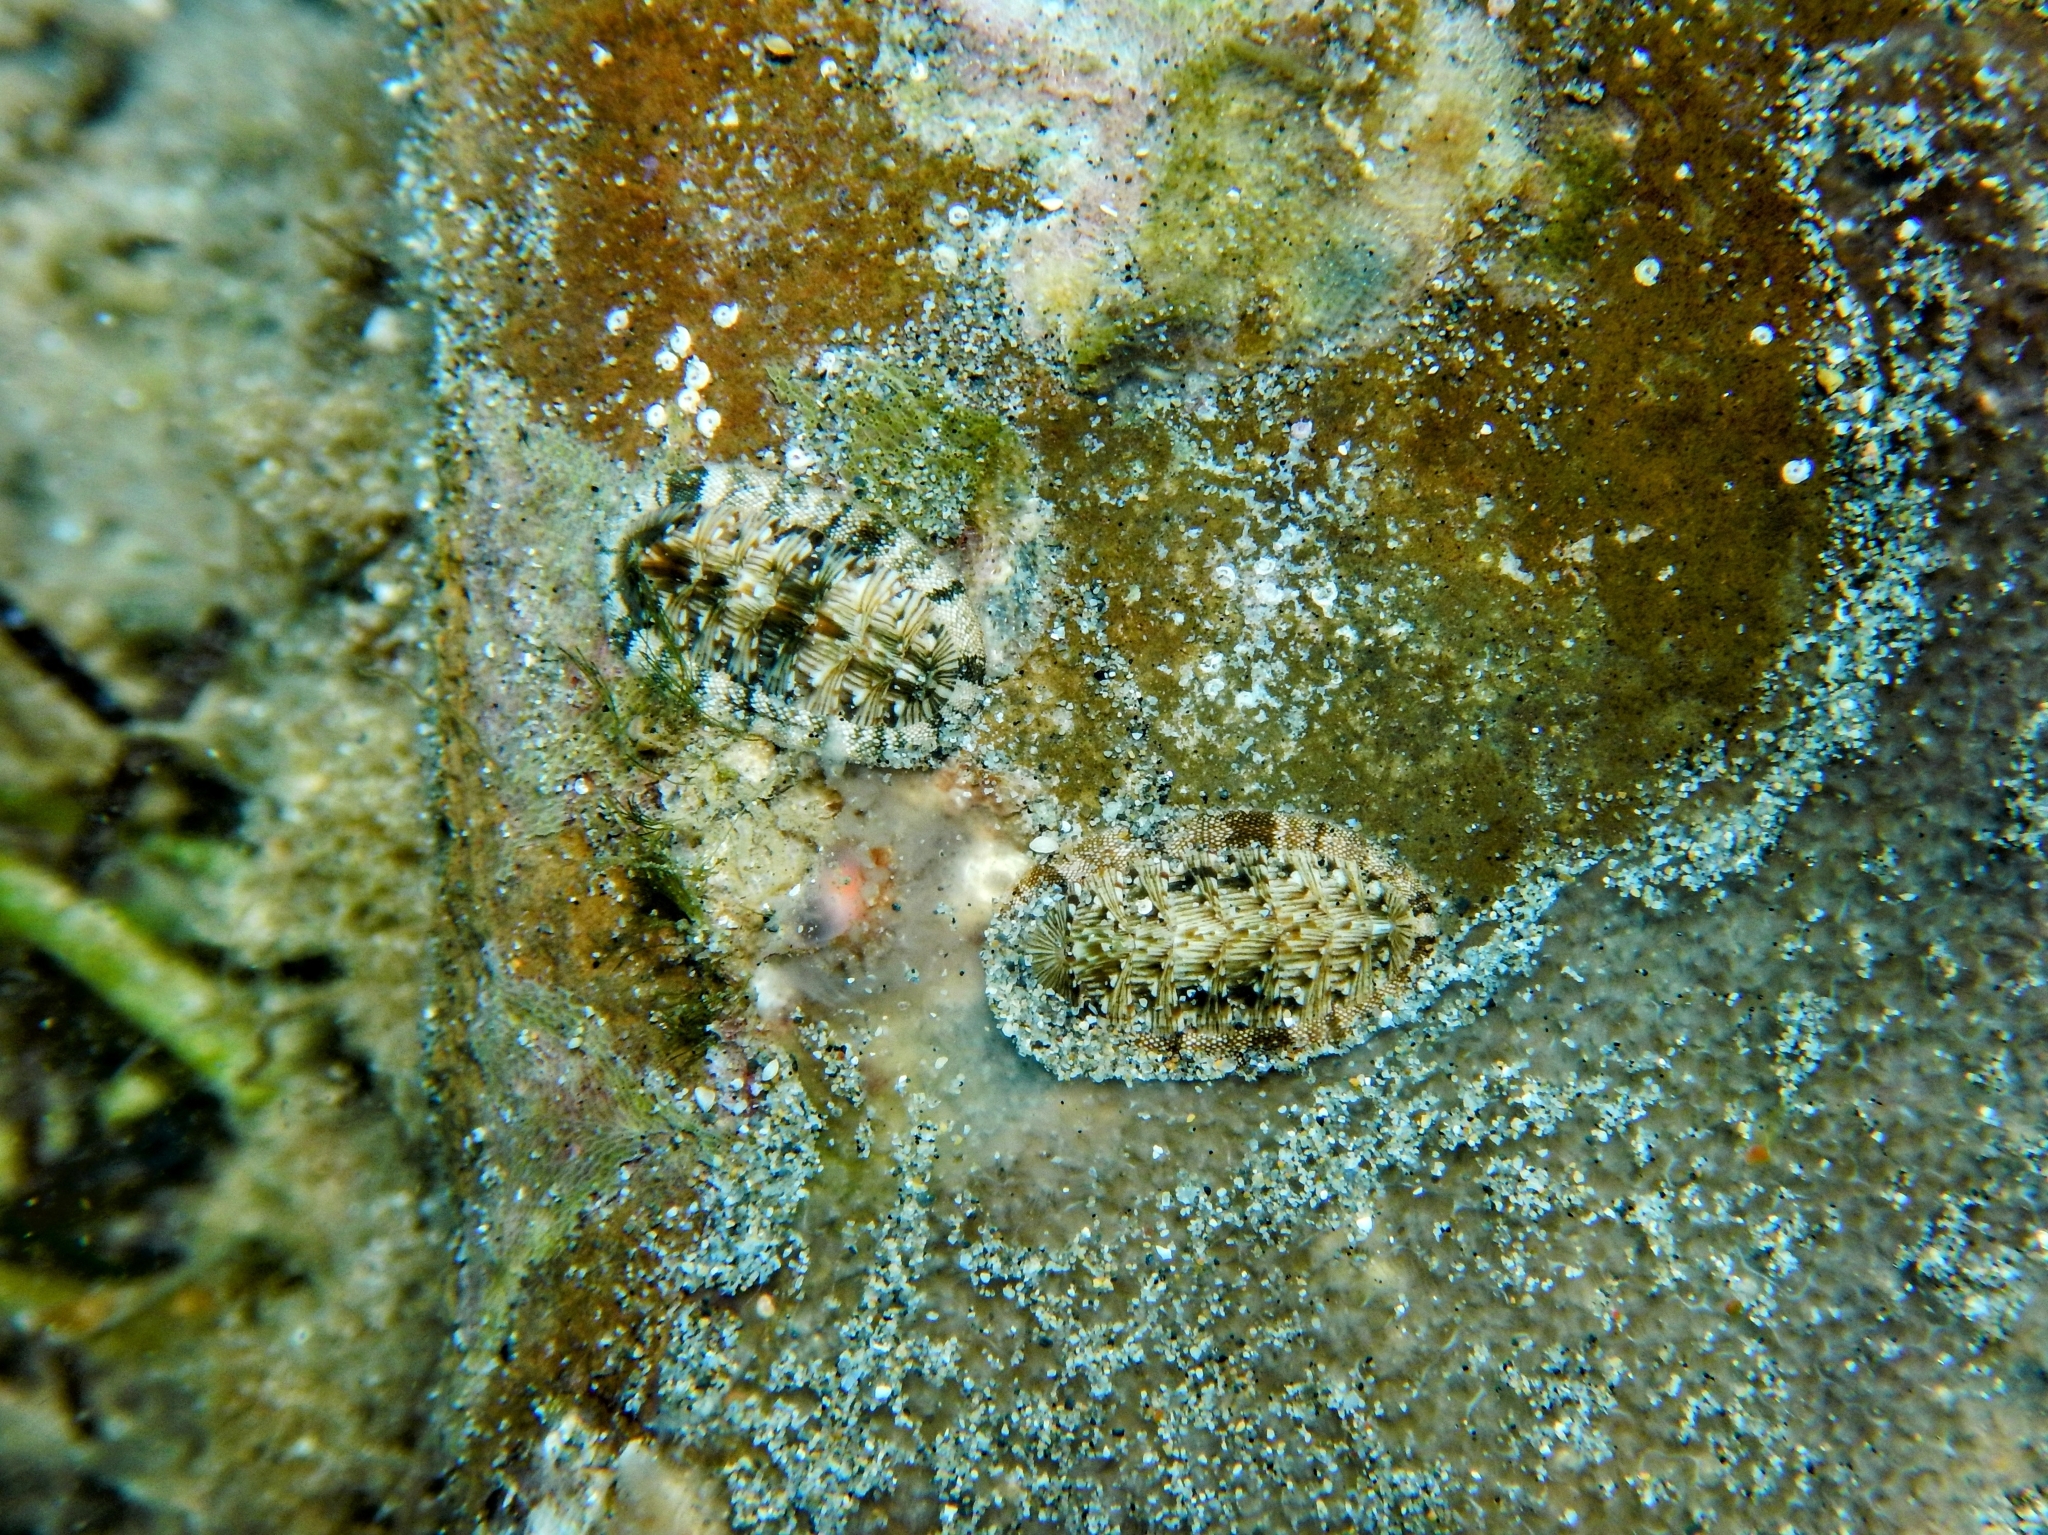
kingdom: Animalia
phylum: Mollusca
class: Polyplacophora
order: Chitonida
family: Chitonidae
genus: Rhyssoplax
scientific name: Rhyssoplax olivacea
